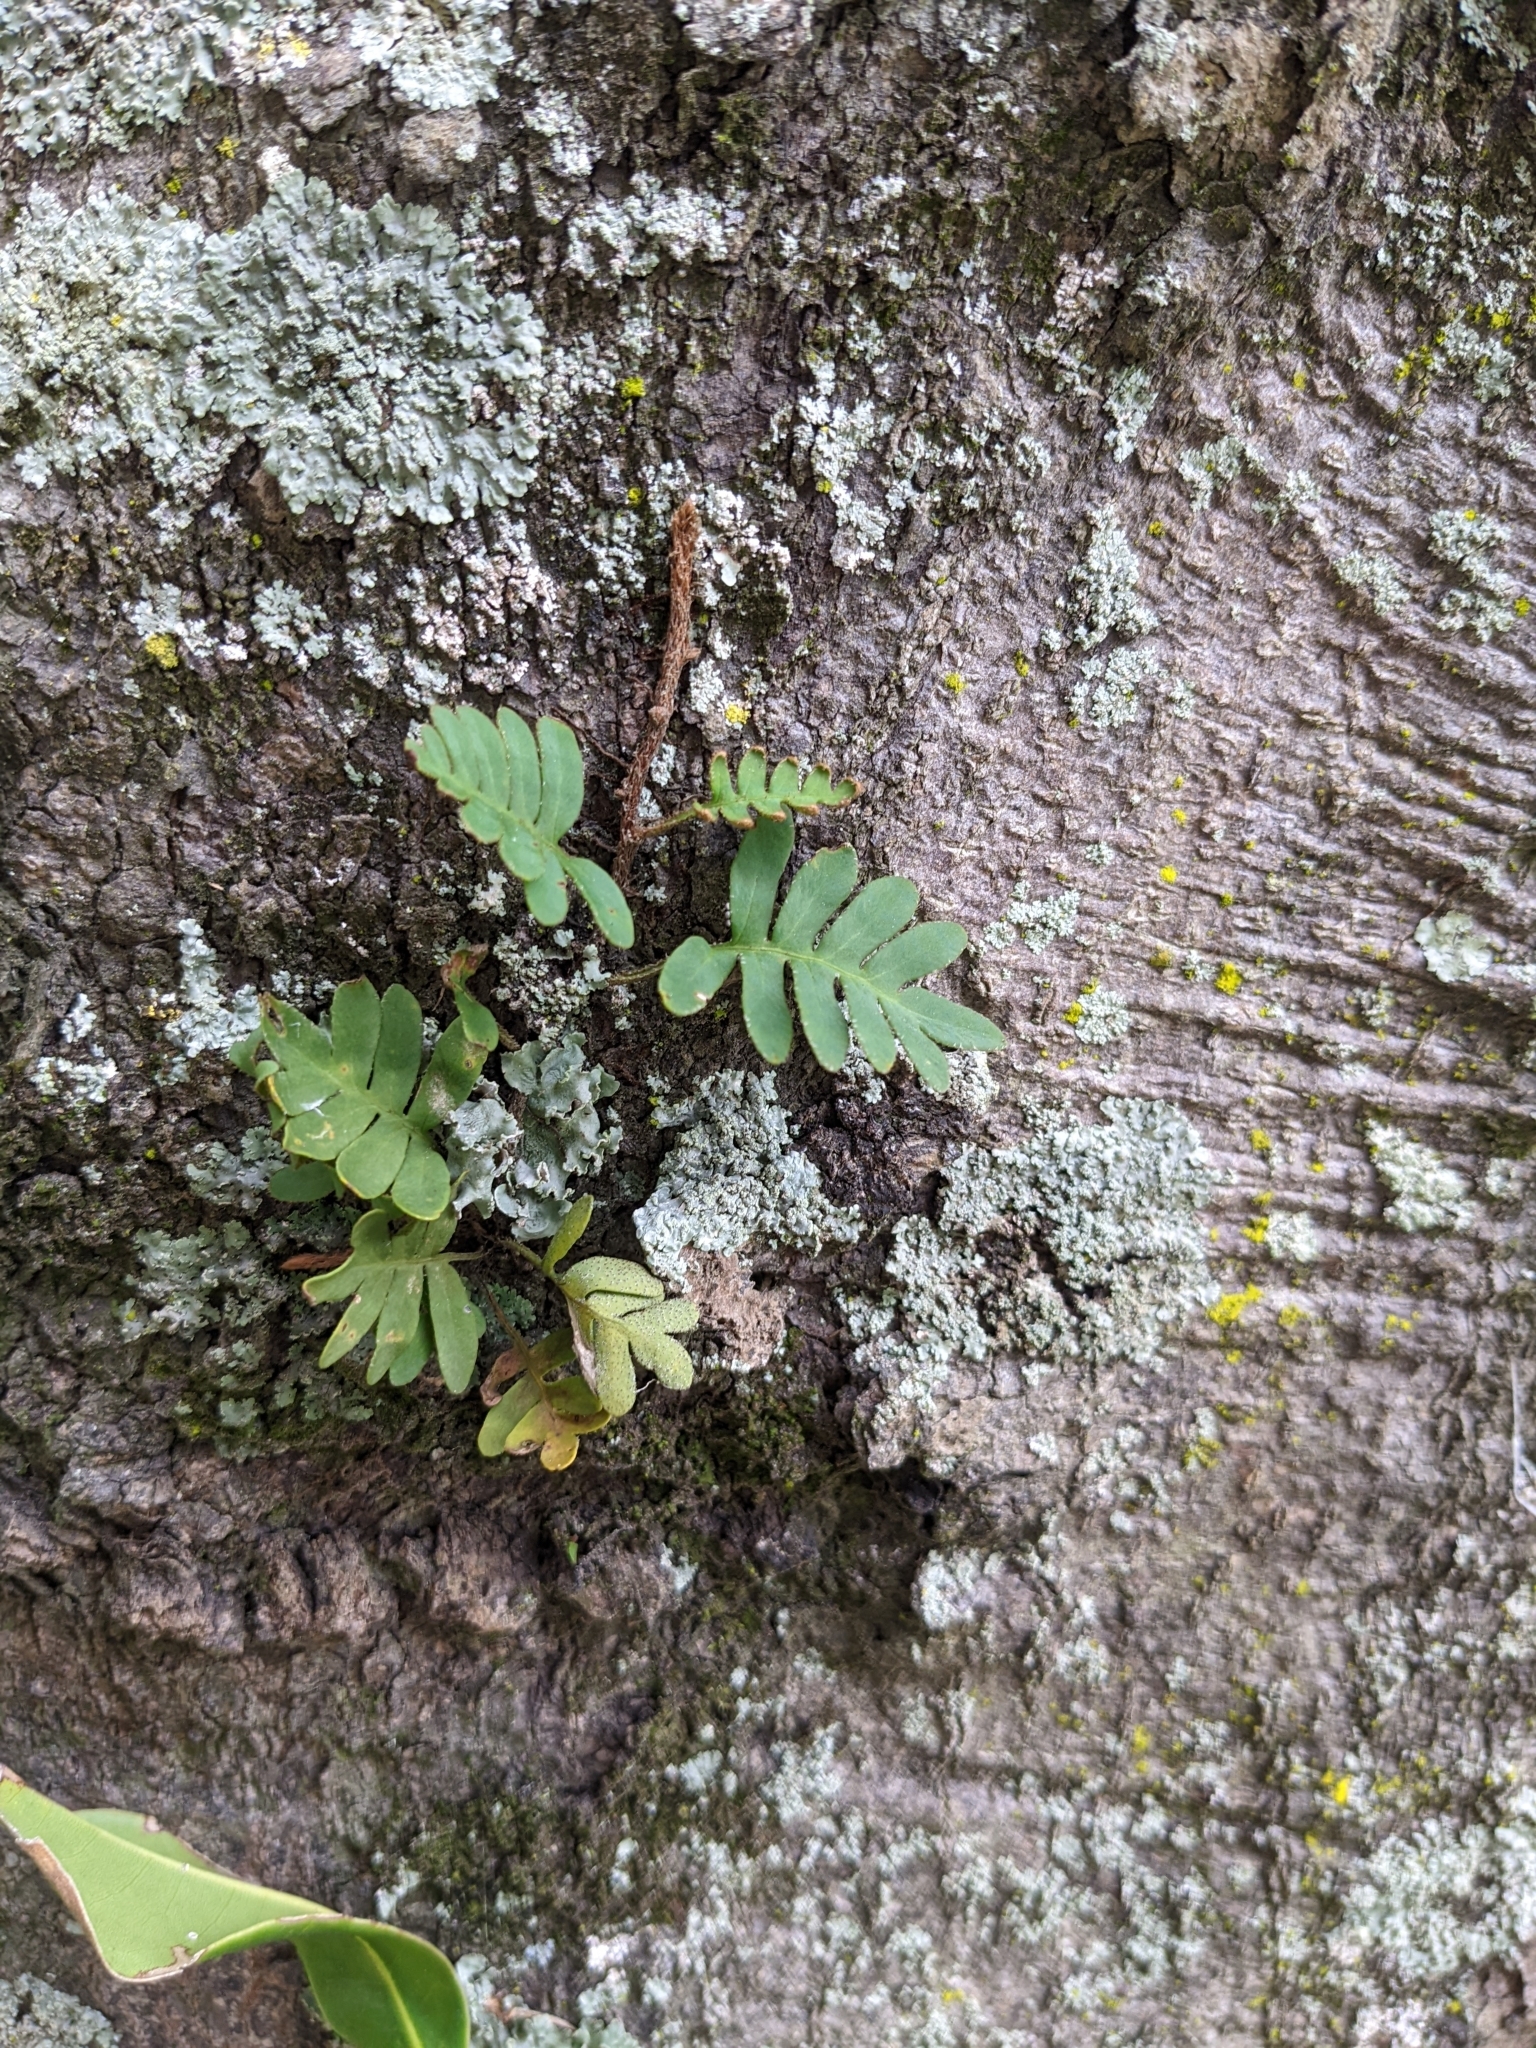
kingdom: Plantae
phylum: Tracheophyta
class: Polypodiopsida
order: Polypodiales
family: Polypodiaceae
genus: Pleopeltis
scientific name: Pleopeltis michauxiana
